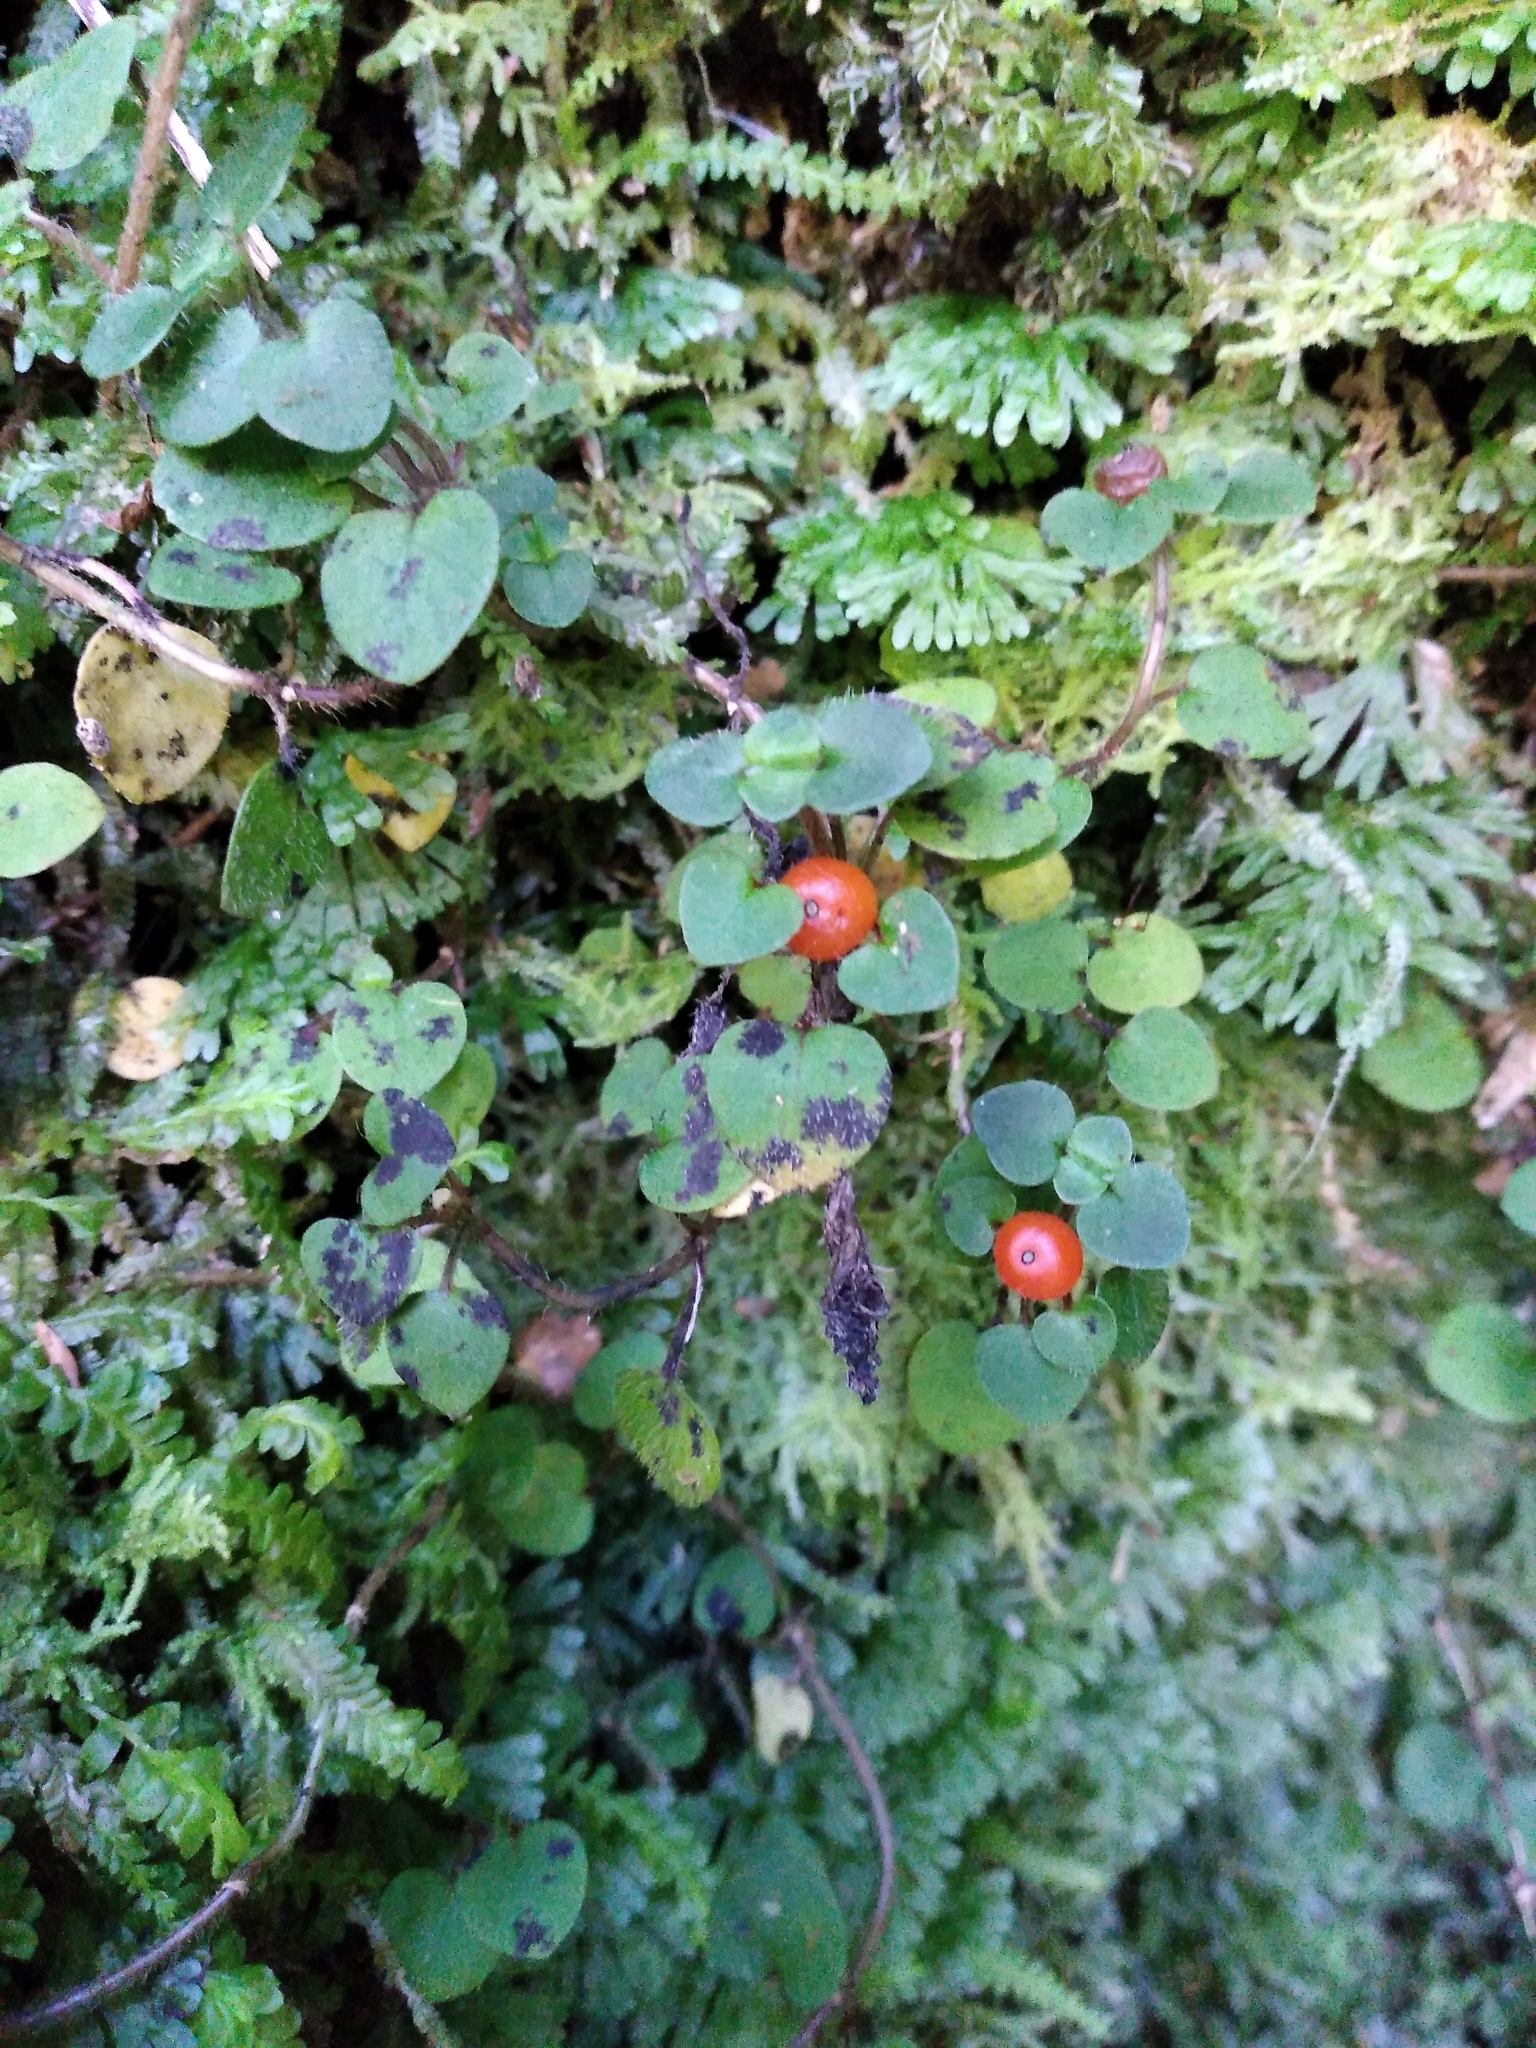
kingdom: Plantae
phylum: Tracheophyta
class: Magnoliopsida
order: Gentianales
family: Rubiaceae
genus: Nertera
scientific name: Nertera villosa
